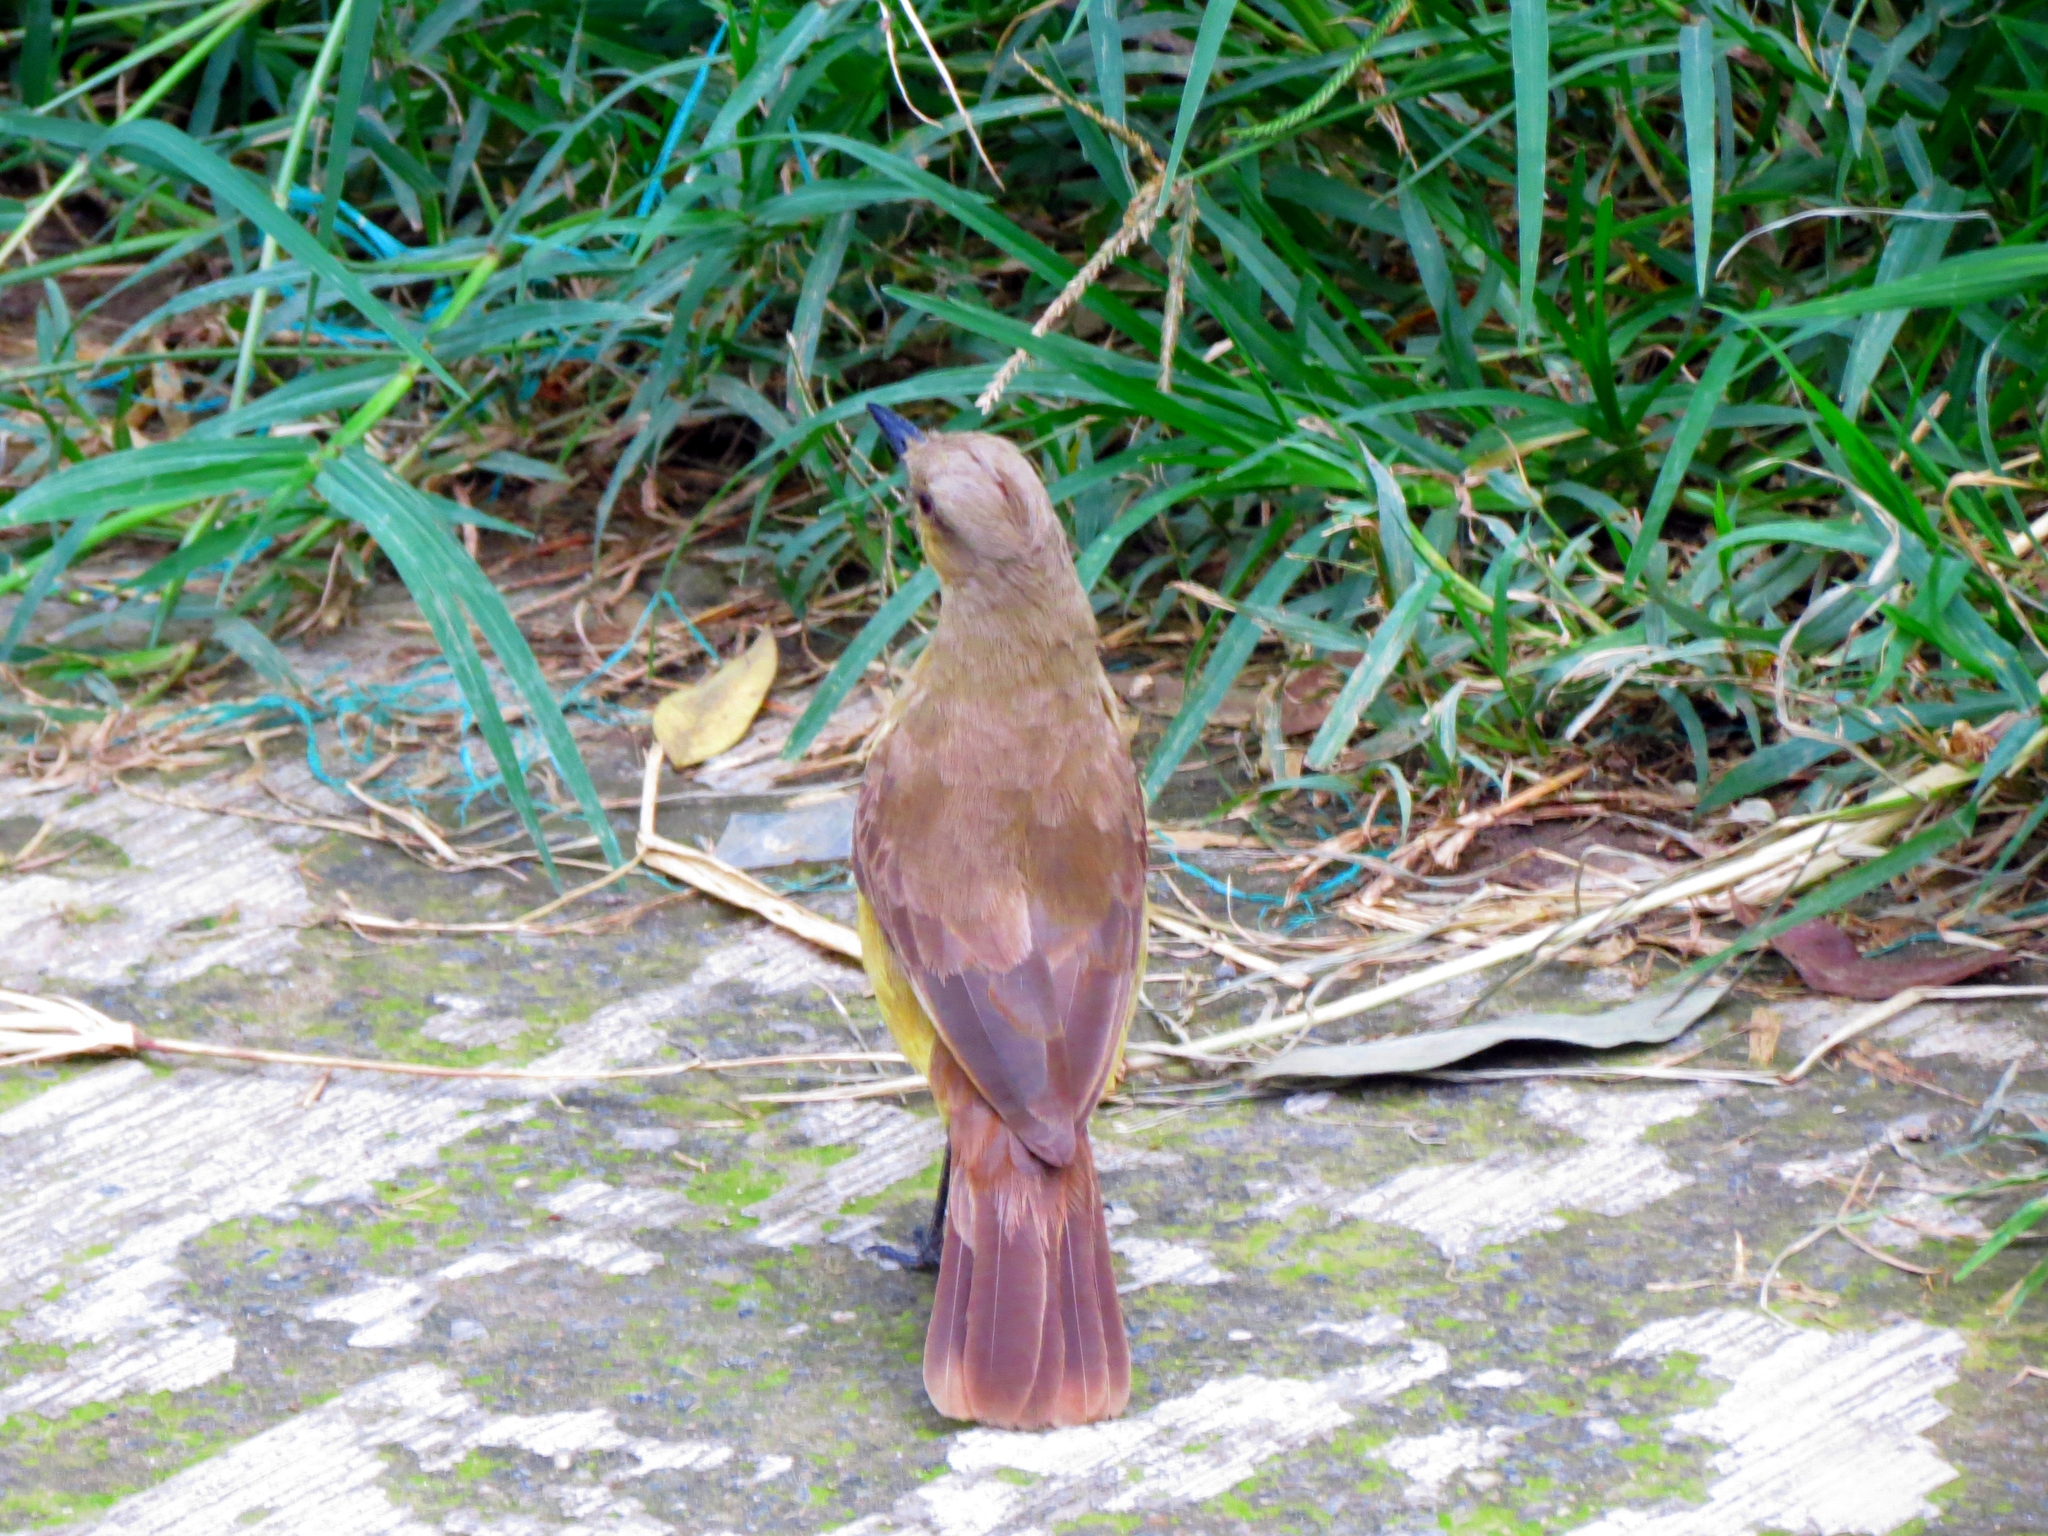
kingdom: Animalia
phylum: Chordata
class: Aves
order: Passeriformes
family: Tyrannidae
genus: Machetornis
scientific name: Machetornis rixosa
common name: Cattle tyrant
